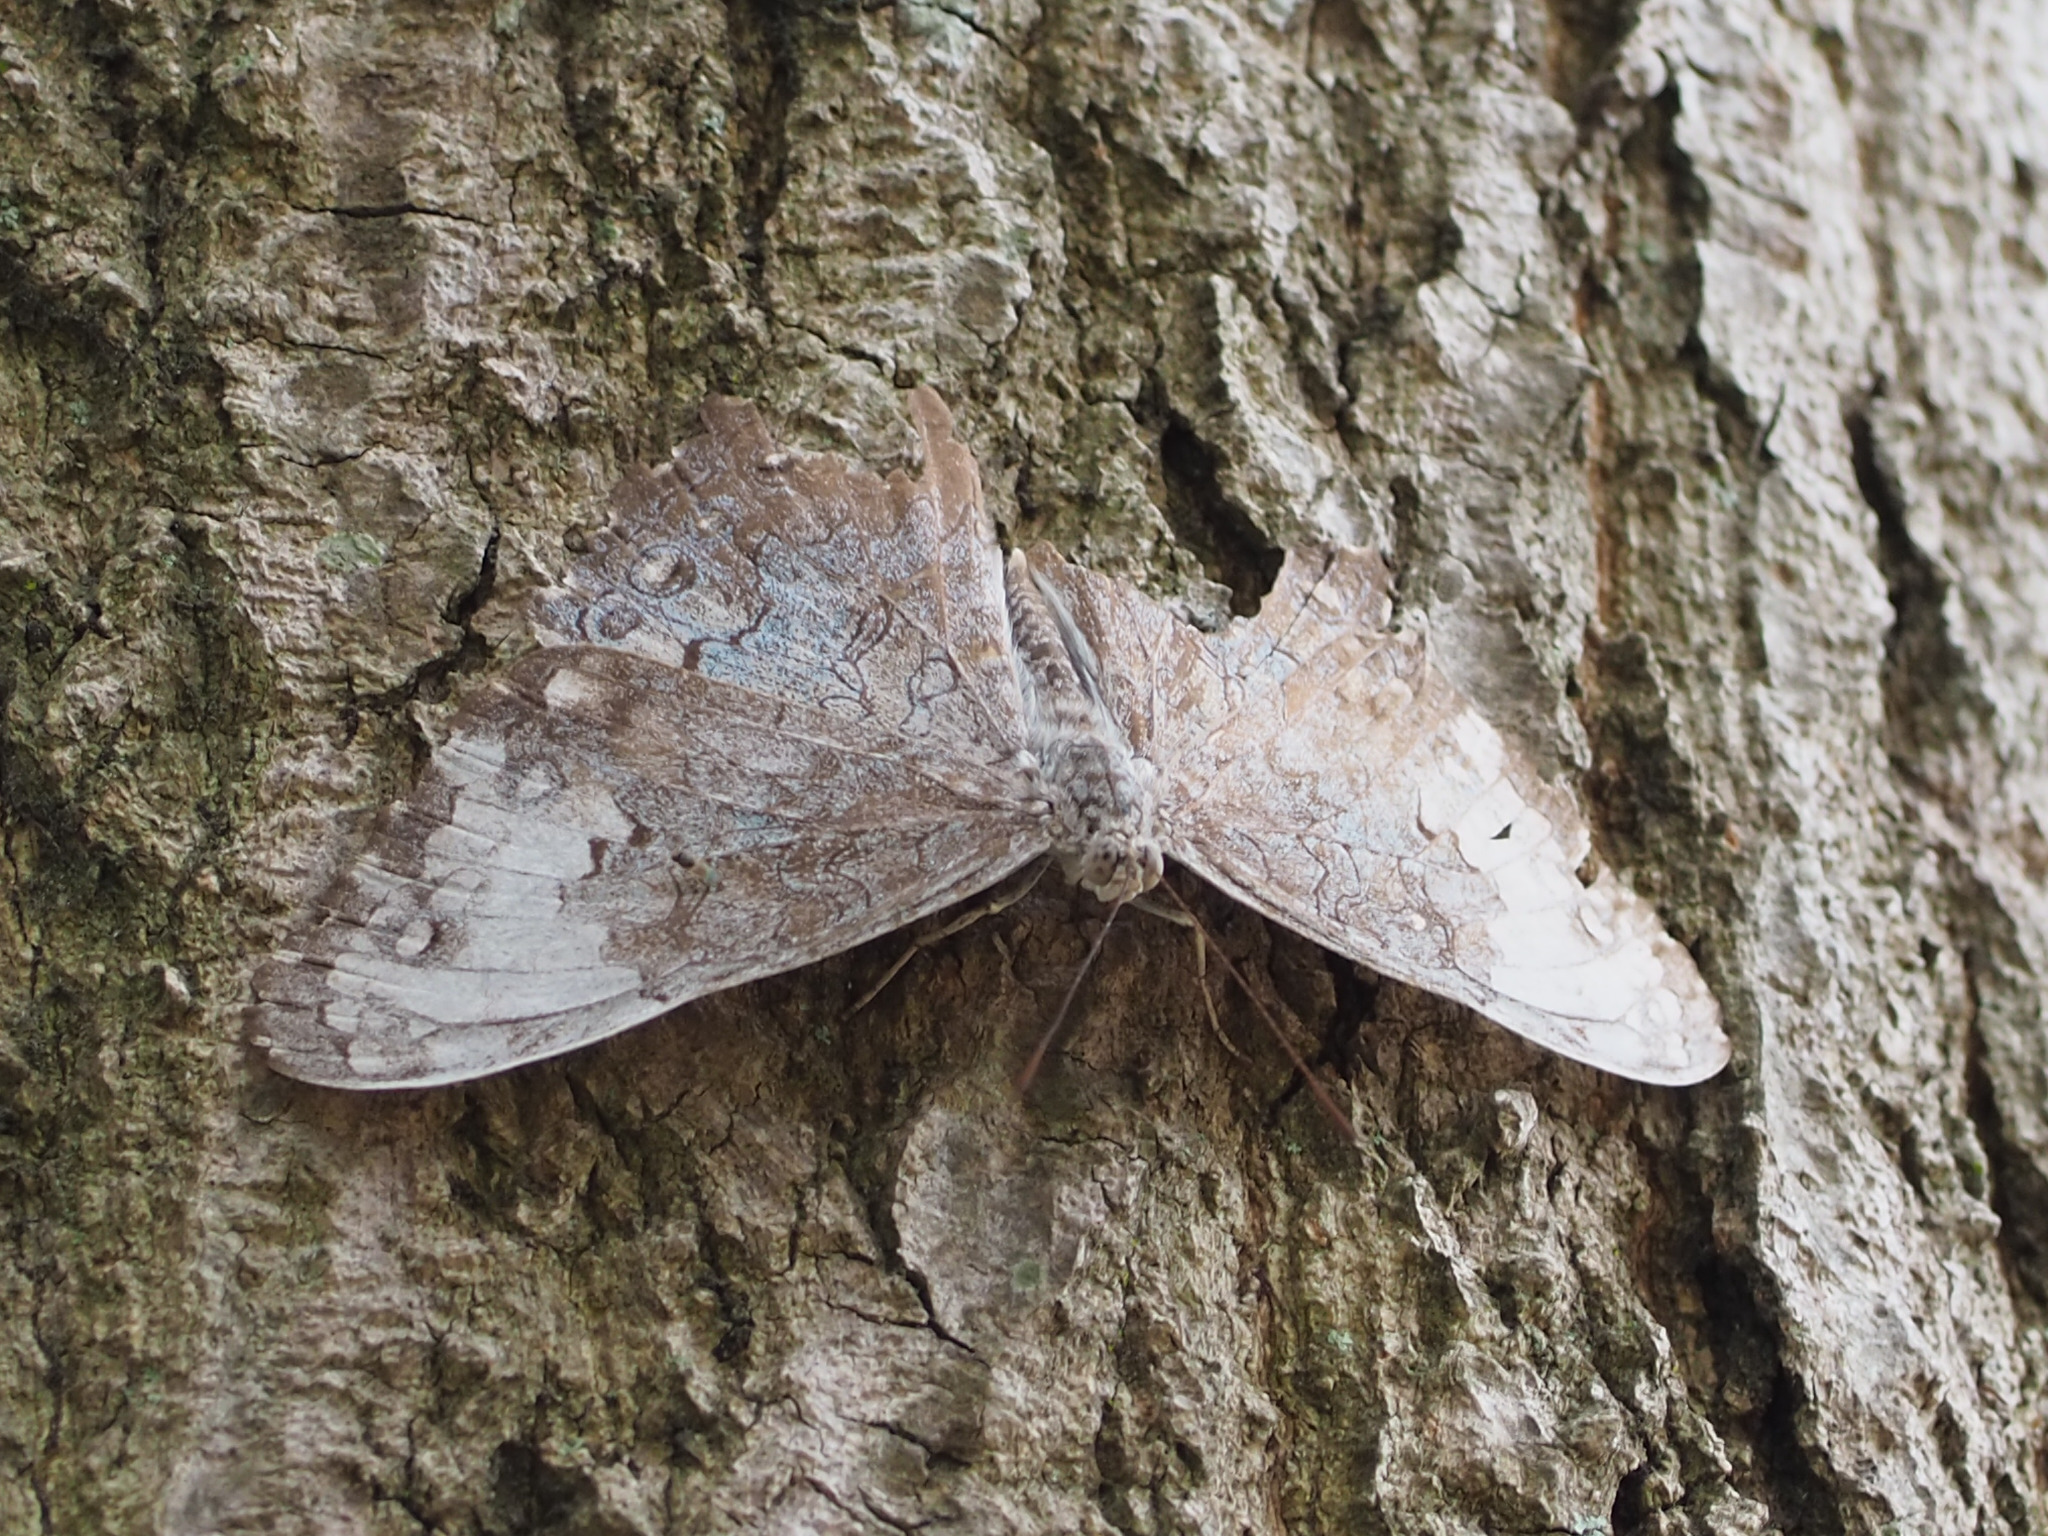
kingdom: Animalia
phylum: Arthropoda
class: Insecta
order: Lepidoptera
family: Nymphalidae
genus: Hamadryas
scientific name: Hamadryas glauconome
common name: Glaucous cracker
